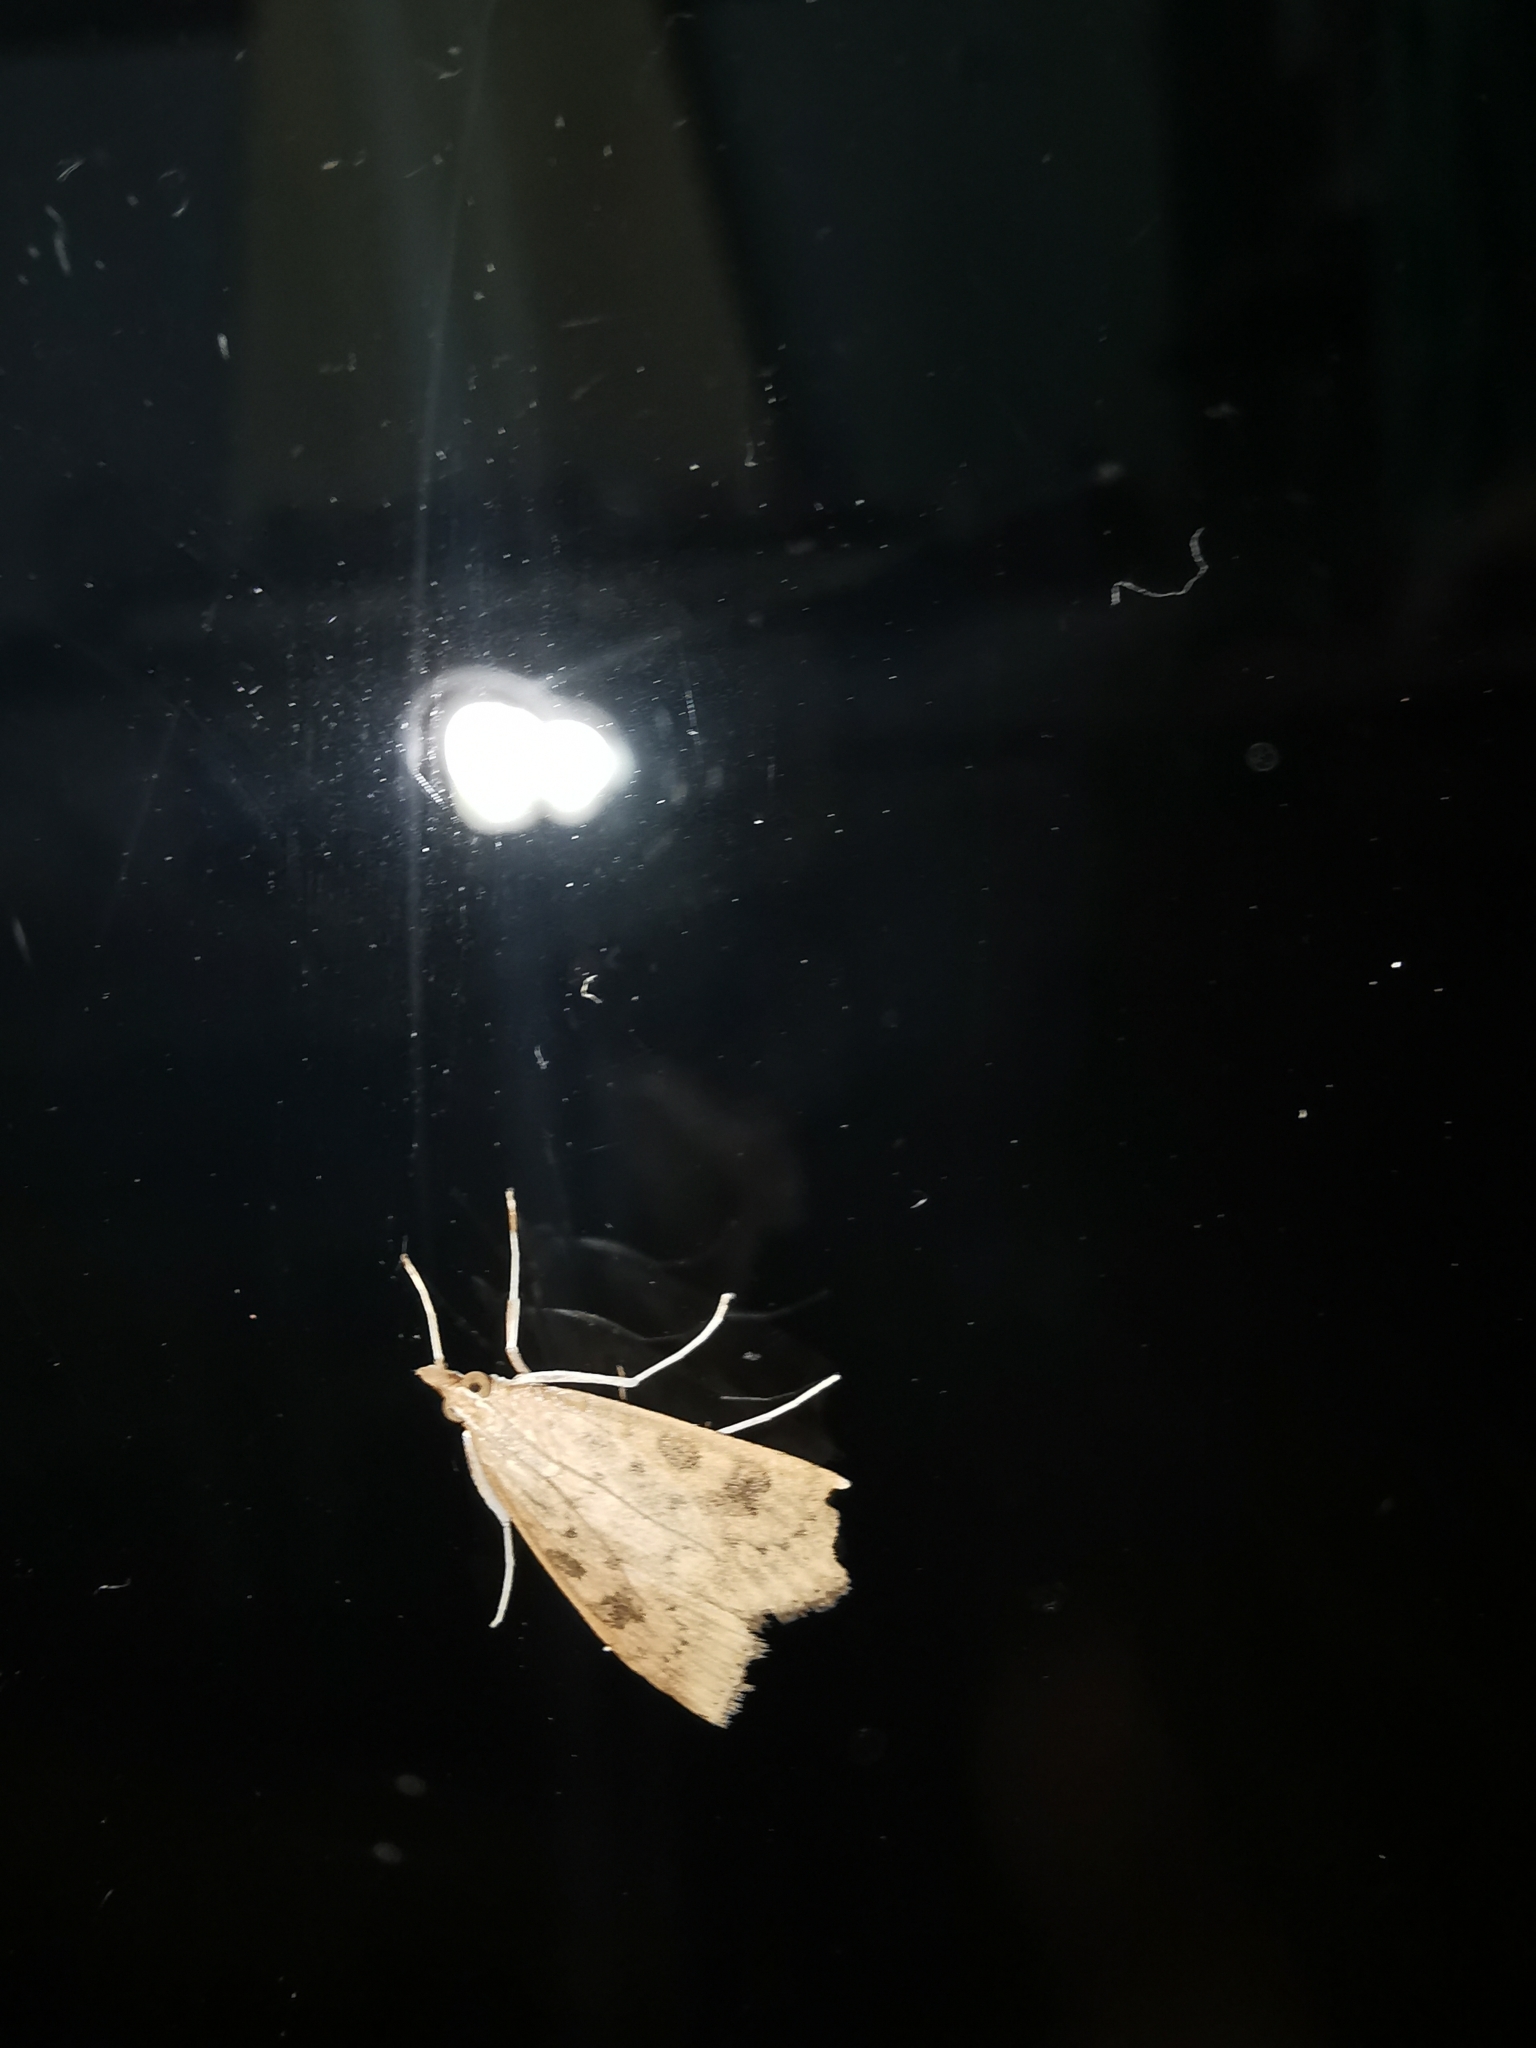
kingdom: Animalia
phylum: Arthropoda
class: Insecta
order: Lepidoptera
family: Crambidae
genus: Udea
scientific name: Udea ferrugalis
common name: Rusty dot
